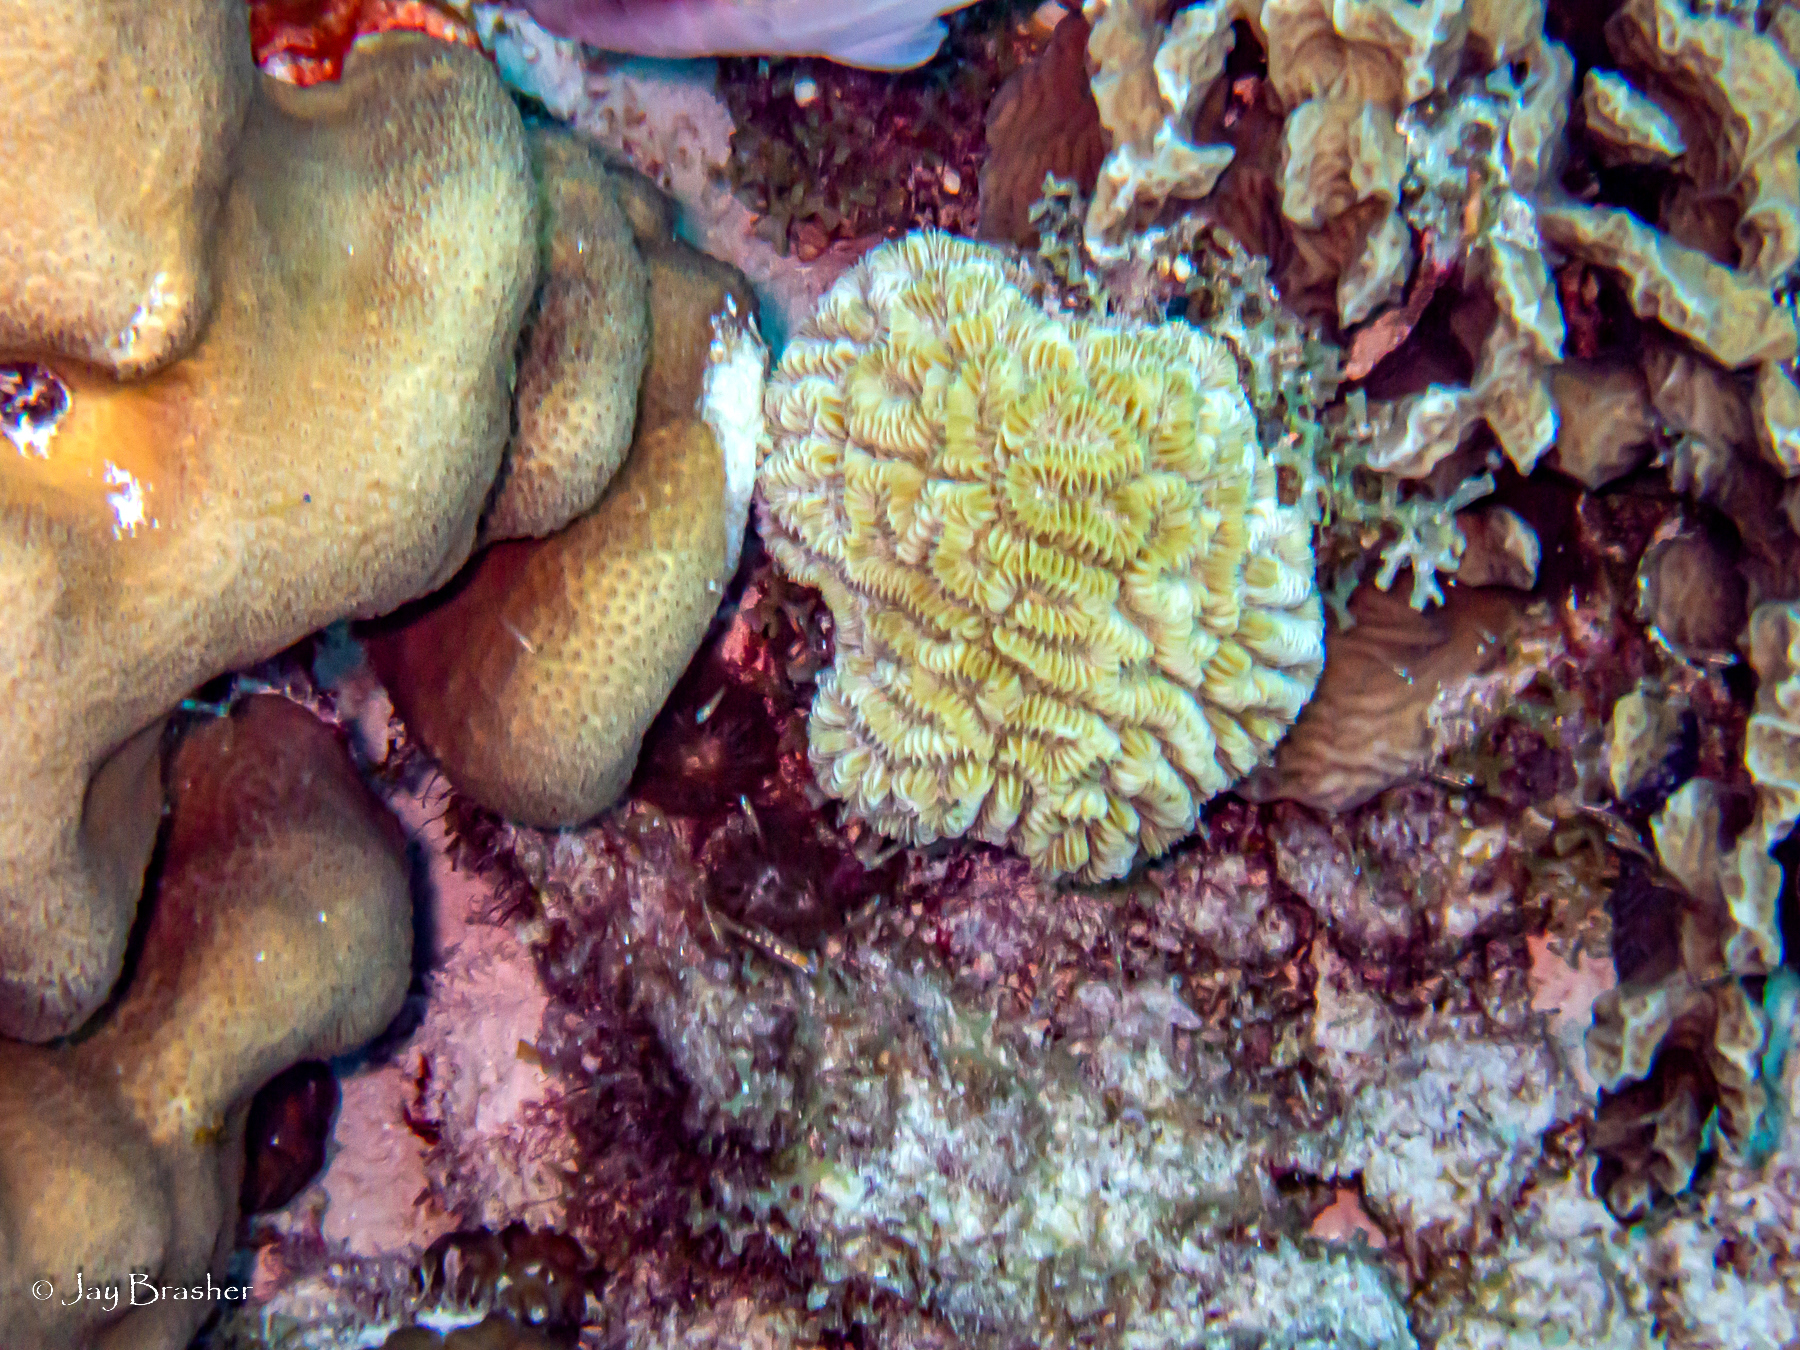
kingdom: Animalia
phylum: Cnidaria
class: Anthozoa
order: Scleractinia
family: Meandrinidae
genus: Meandrina
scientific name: Meandrina meandrites
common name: Maze coral
